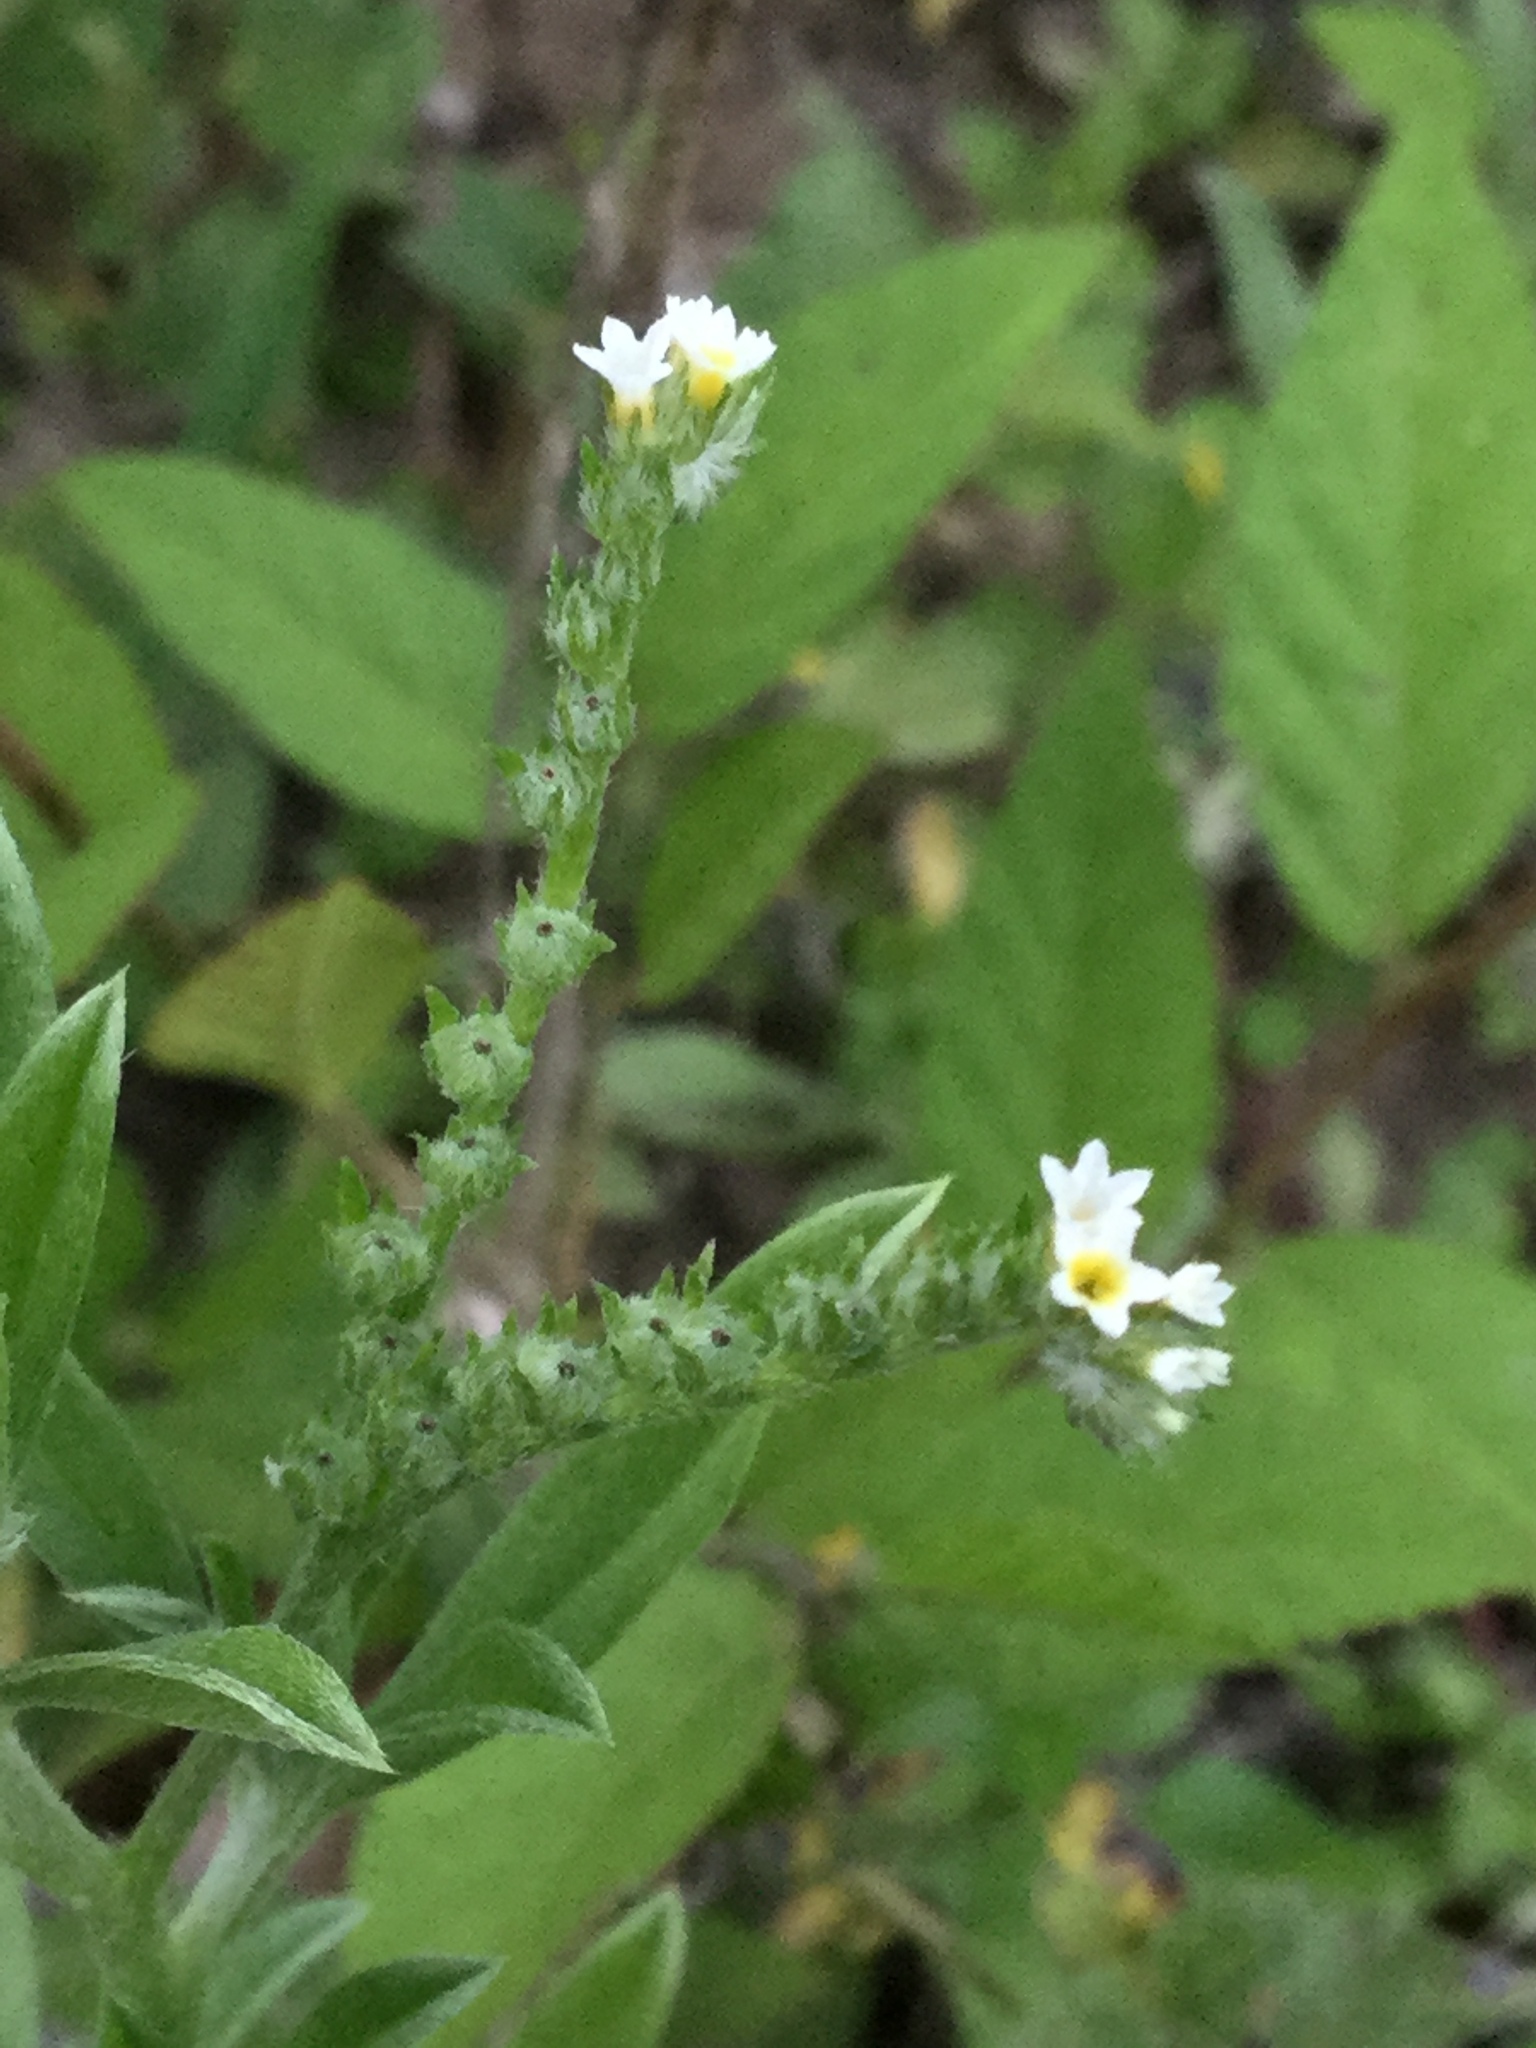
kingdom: Plantae
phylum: Tracheophyta
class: Magnoliopsida
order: Boraginales
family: Heliotropiaceae
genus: Euploca
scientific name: Euploca procumbens
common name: Fourspike heliotrope
